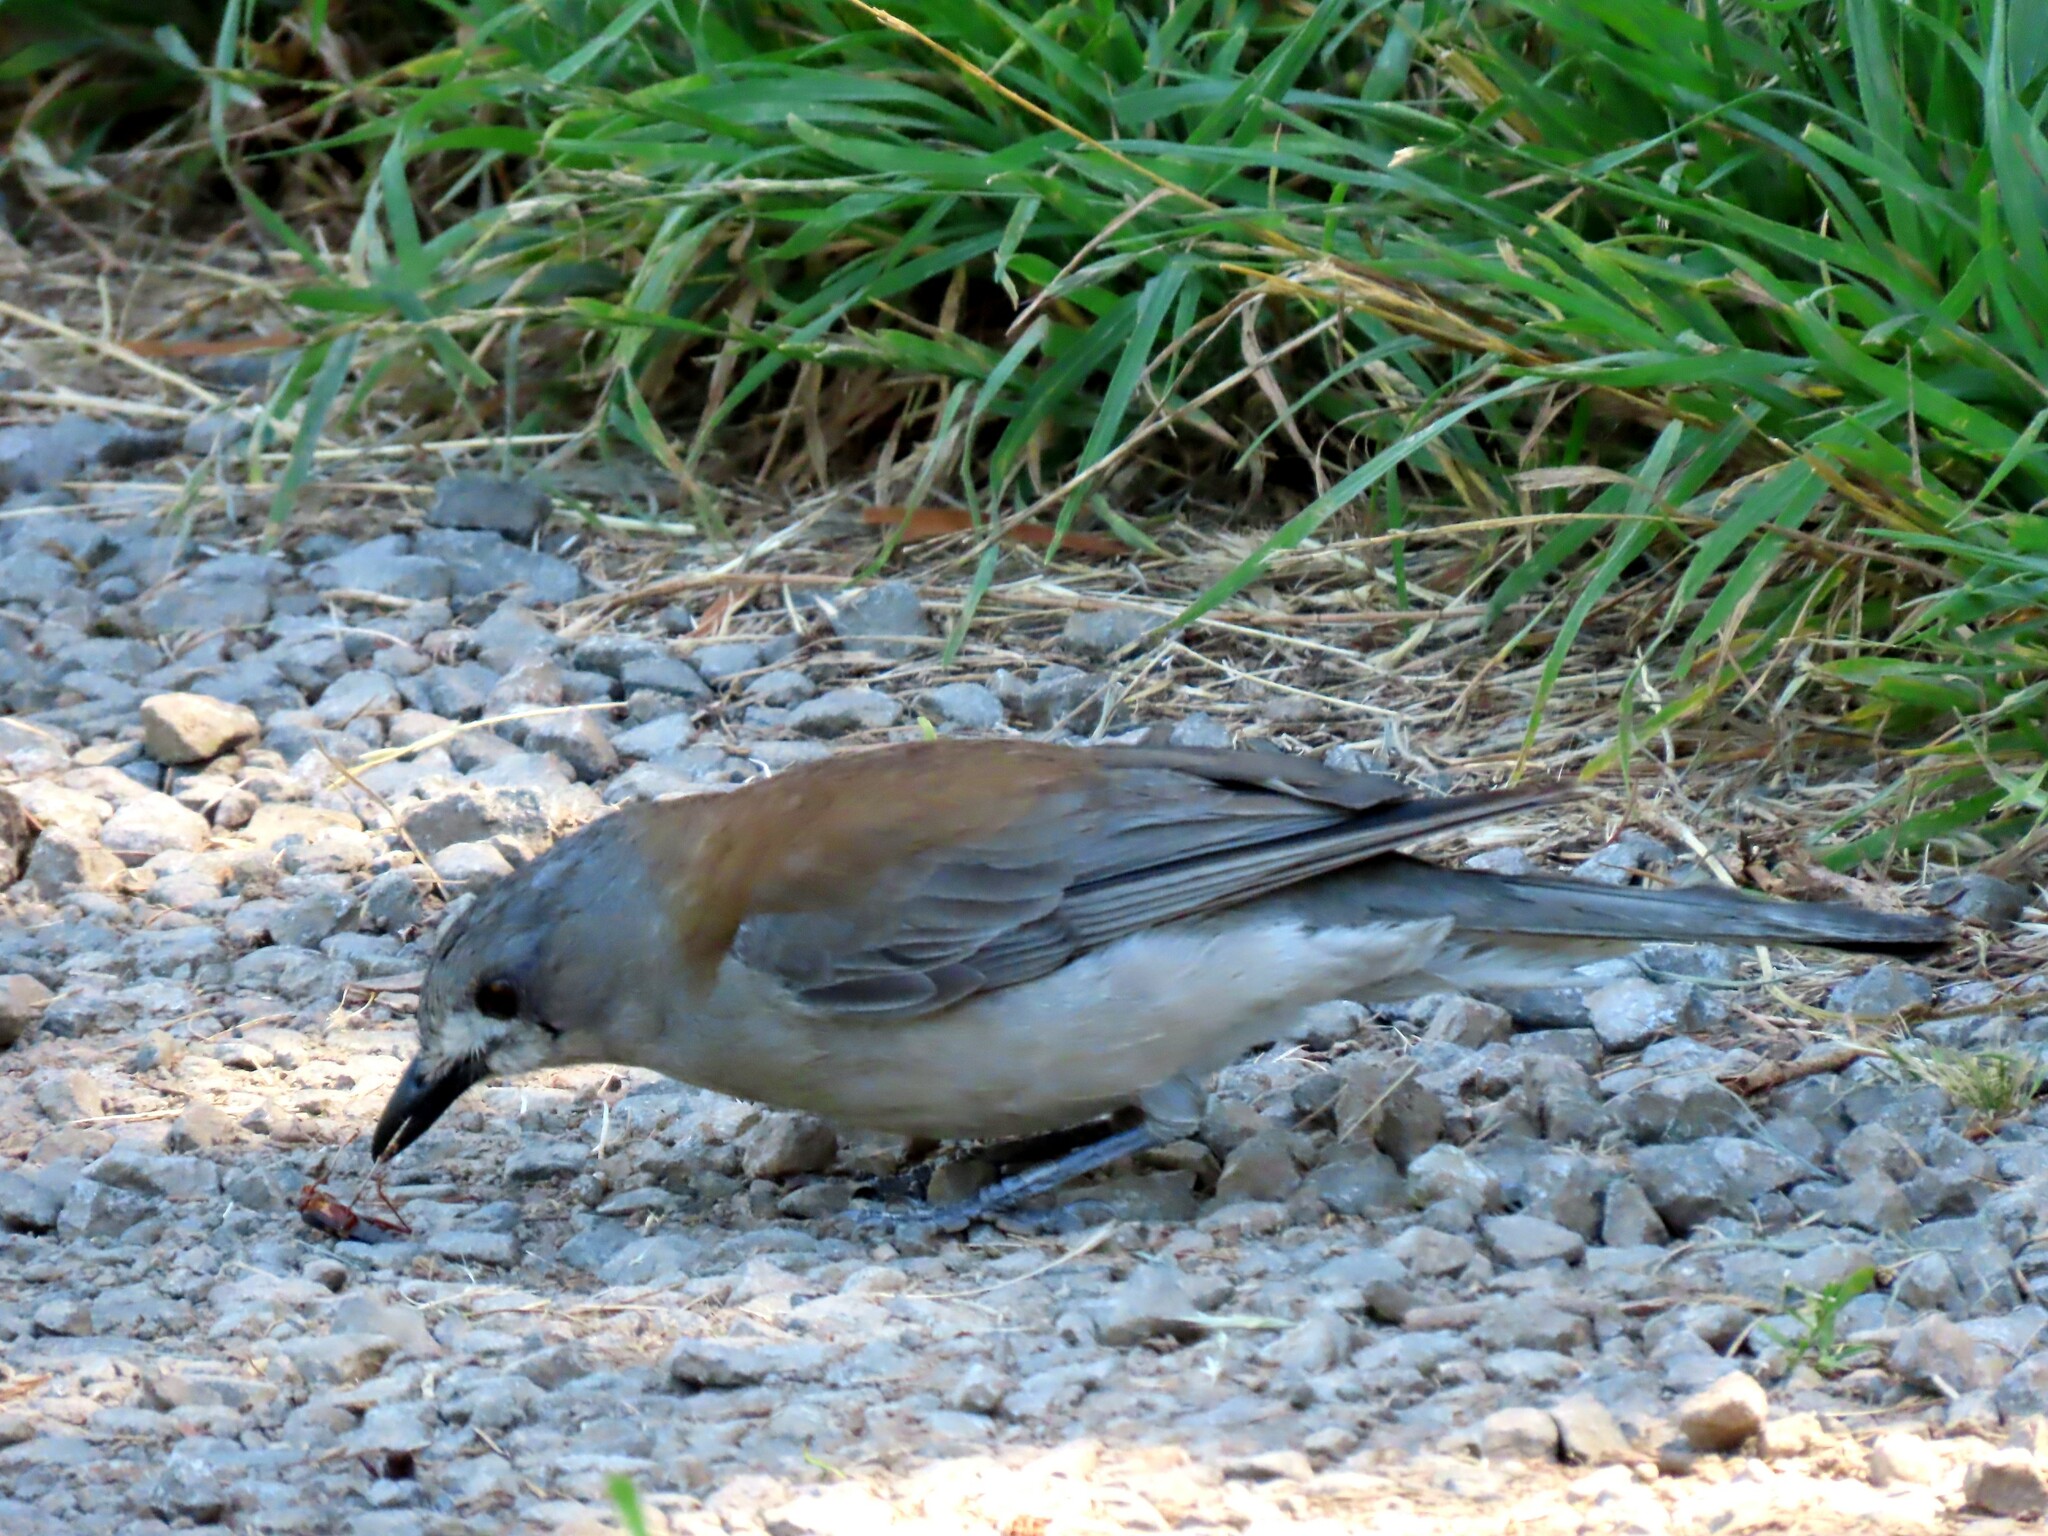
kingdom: Animalia
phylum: Chordata
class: Aves
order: Passeriformes
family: Pachycephalidae
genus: Colluricincla
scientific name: Colluricincla harmonica
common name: Grey shrikethrush
